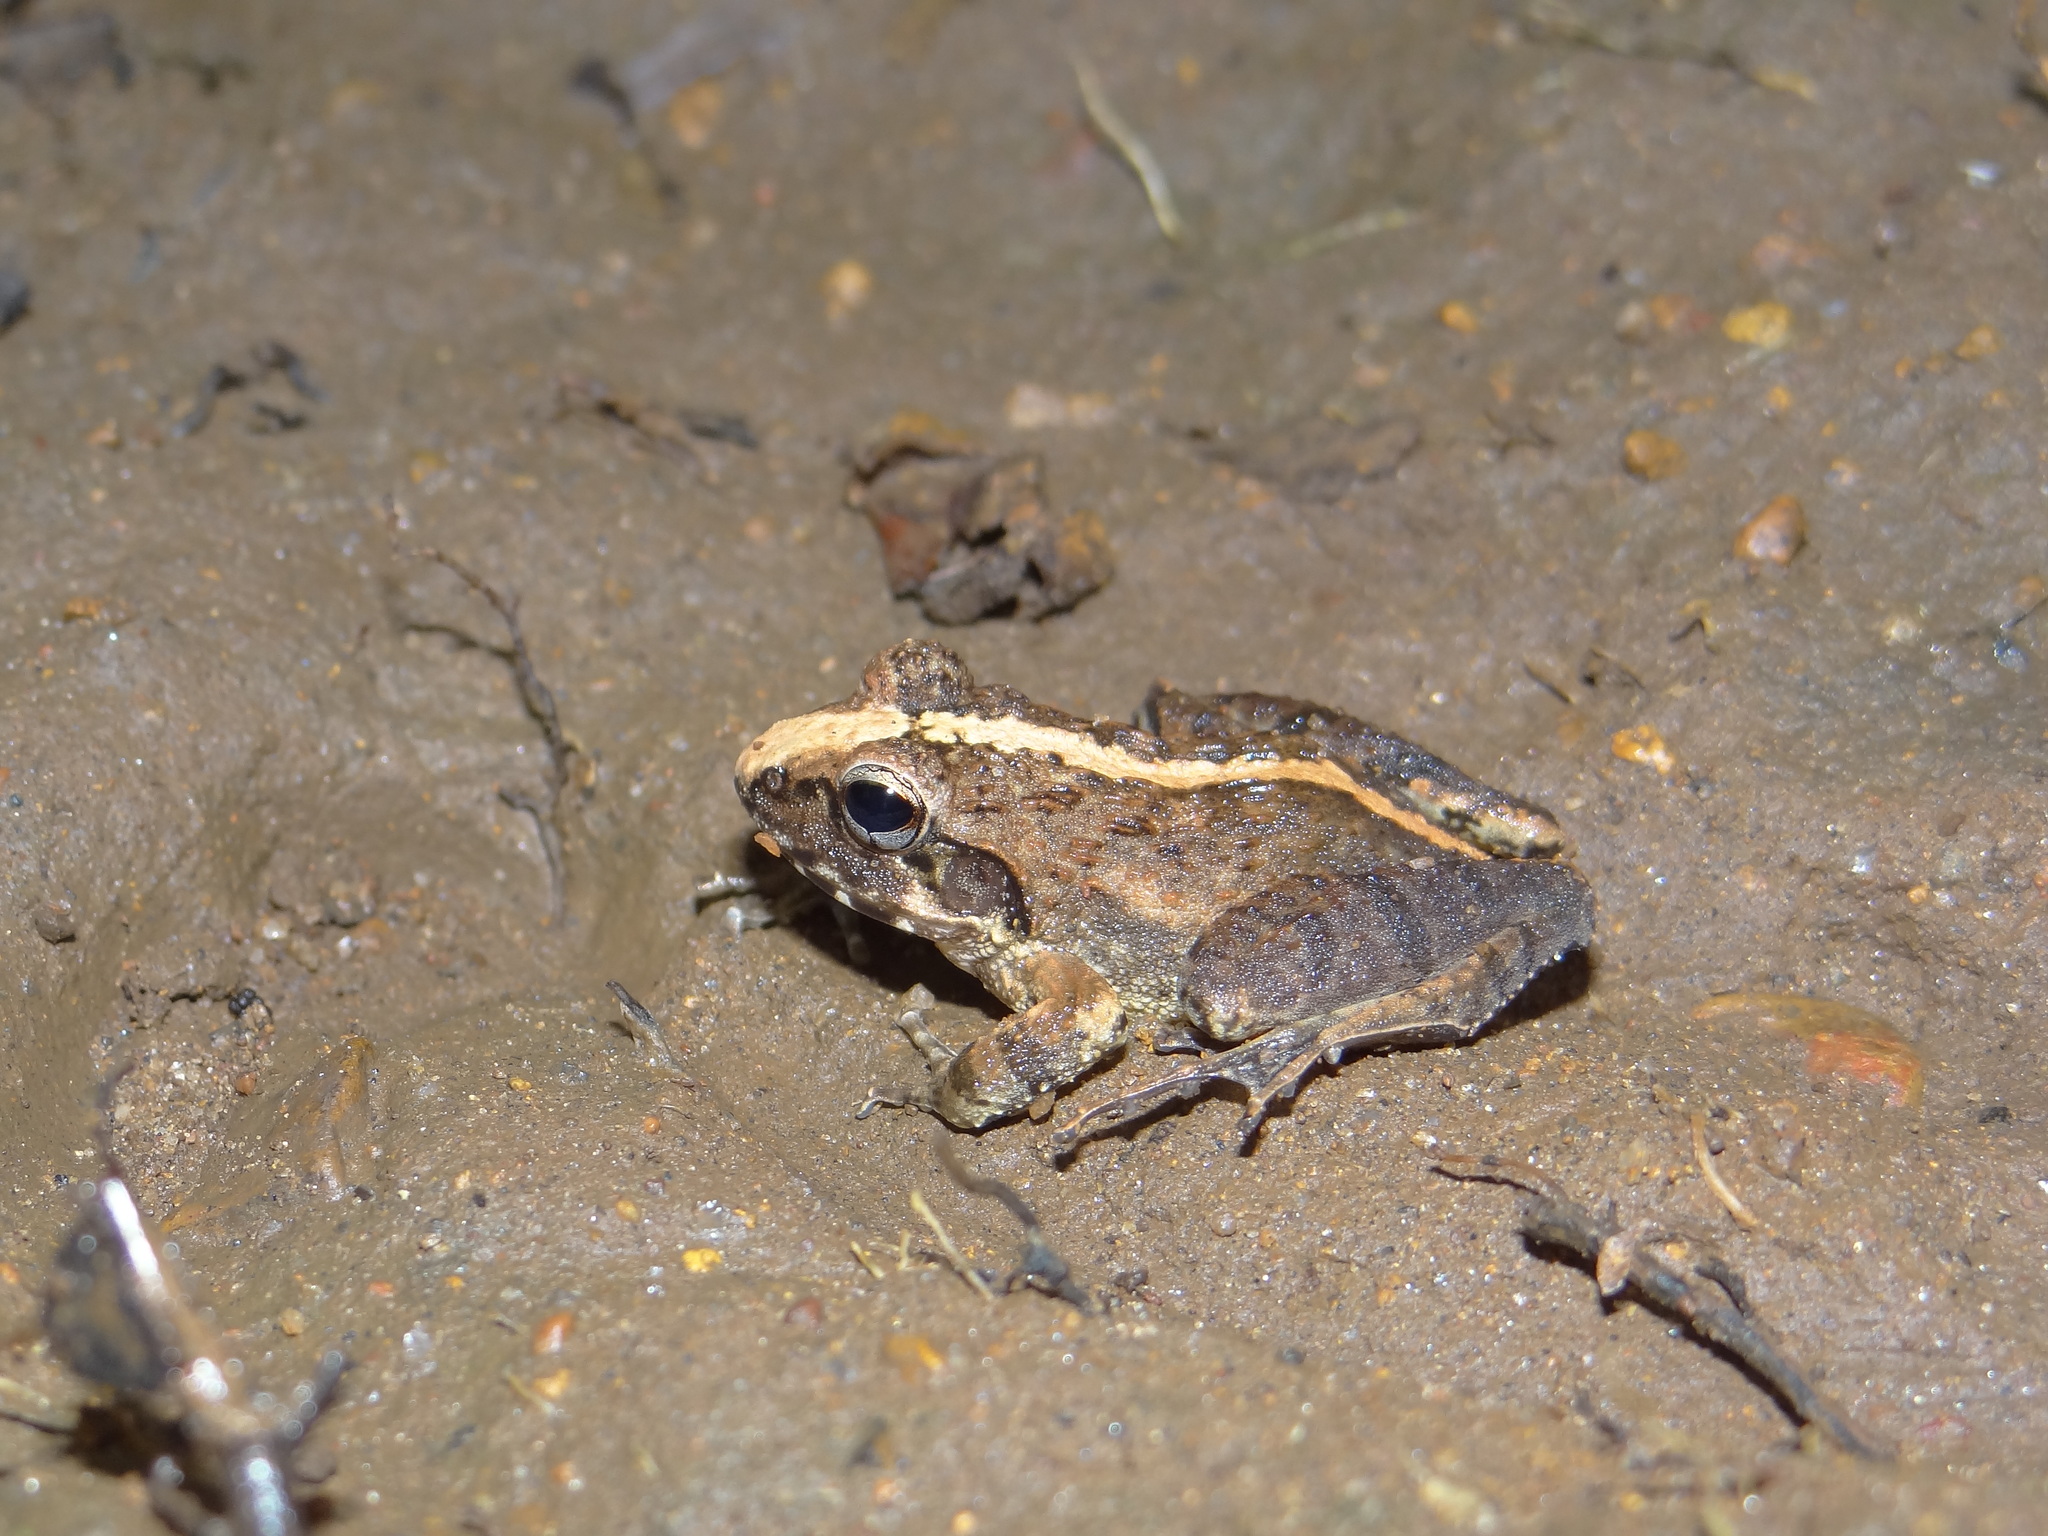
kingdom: Animalia
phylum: Chordata
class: Amphibia
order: Anura
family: Ranixalidae
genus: Indirana
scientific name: Indirana semipalmata
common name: Brown leaping frog
